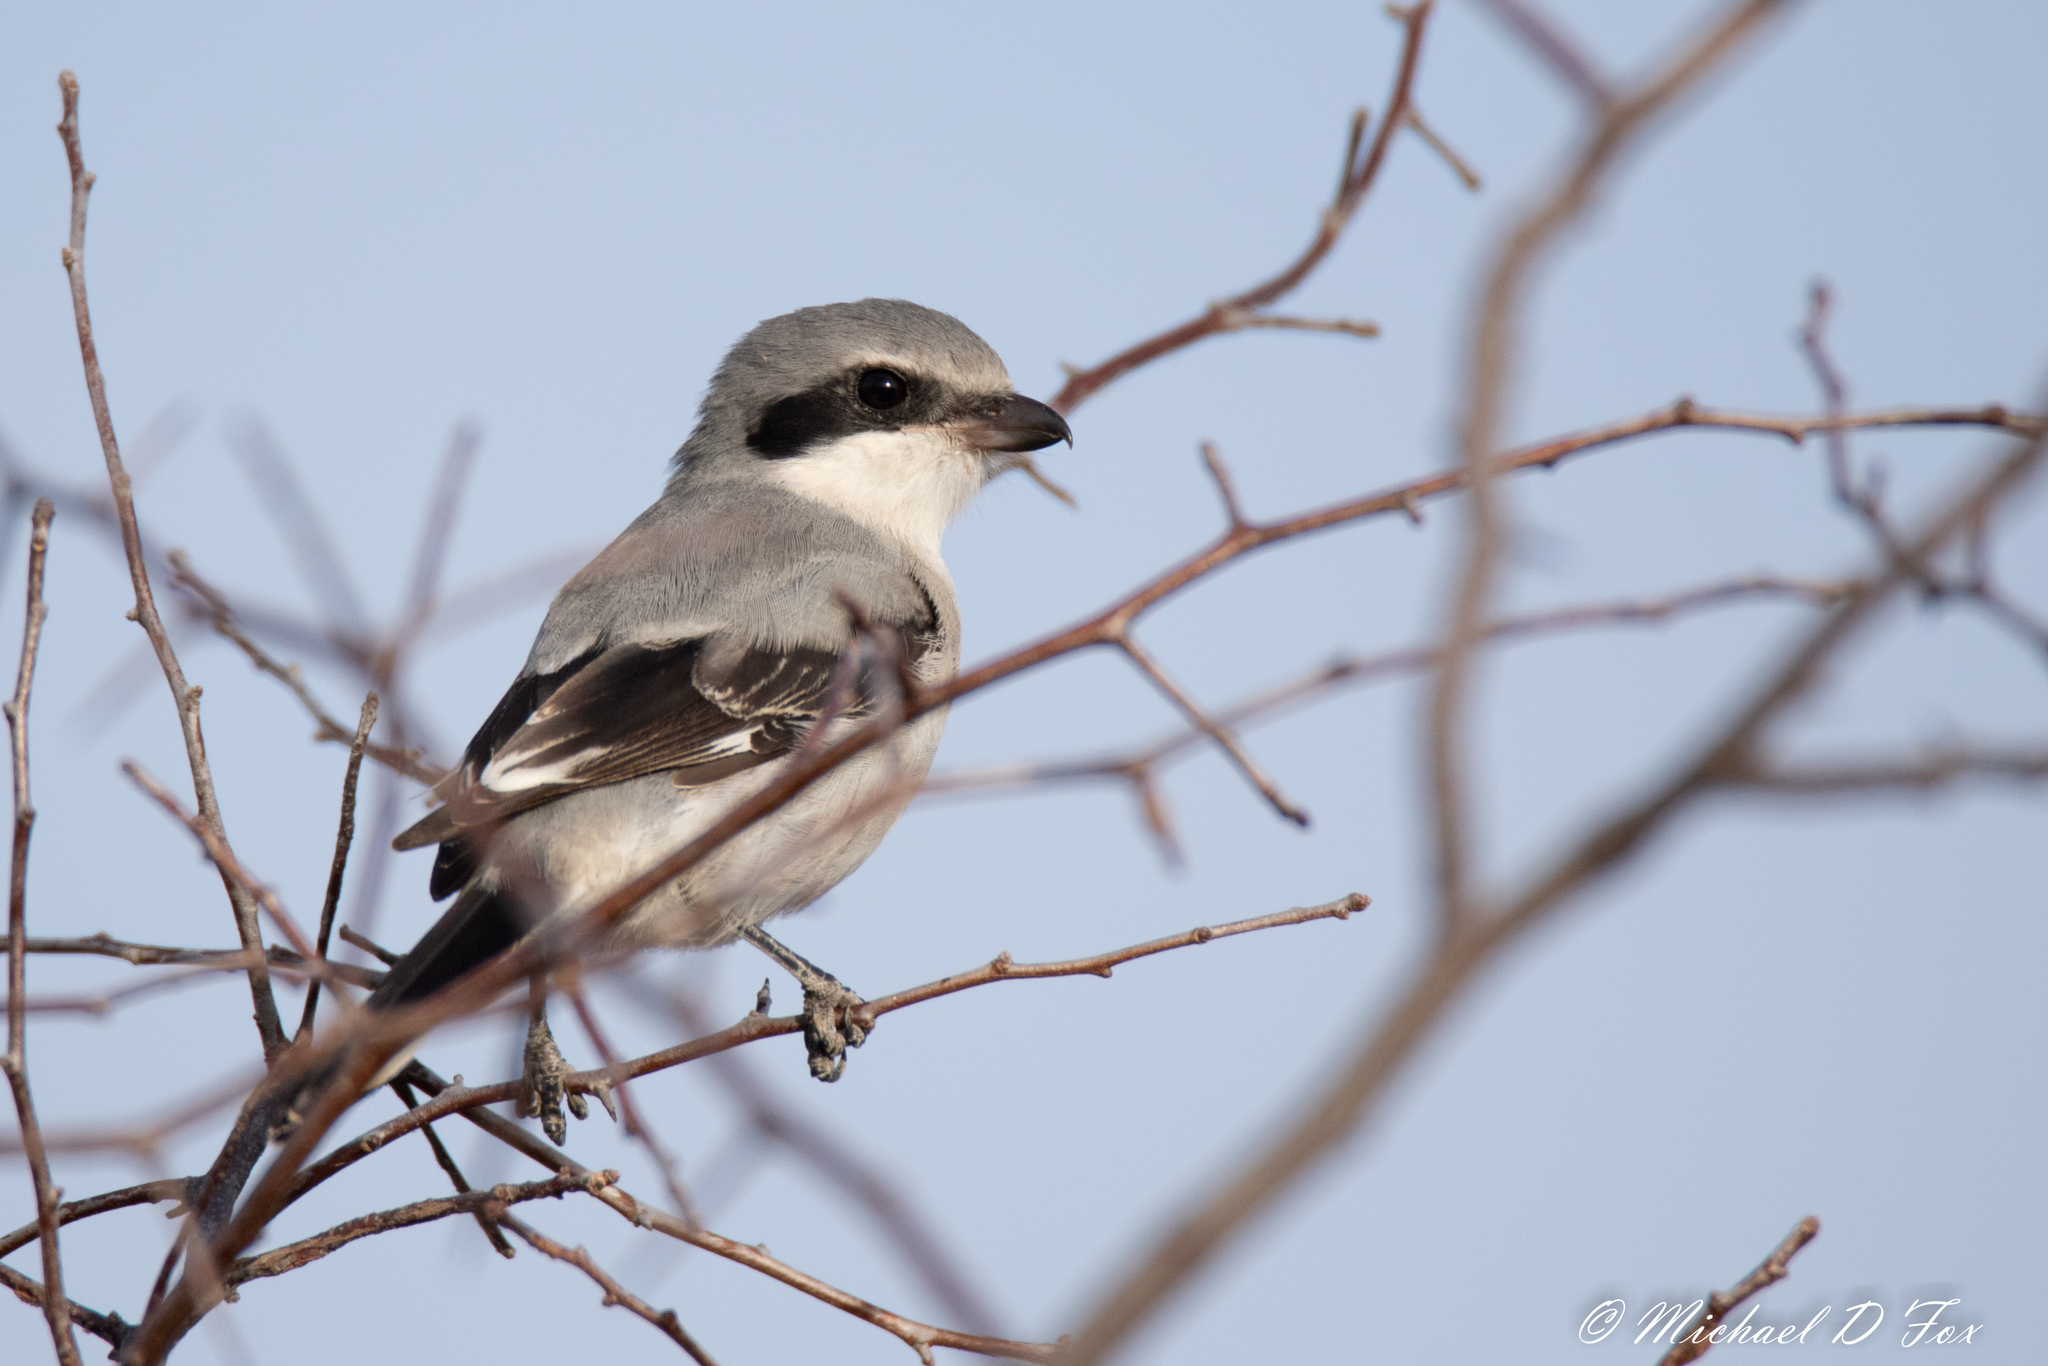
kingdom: Animalia
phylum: Chordata
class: Aves
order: Passeriformes
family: Laniidae
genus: Lanius
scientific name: Lanius ludovicianus
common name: Loggerhead shrike
